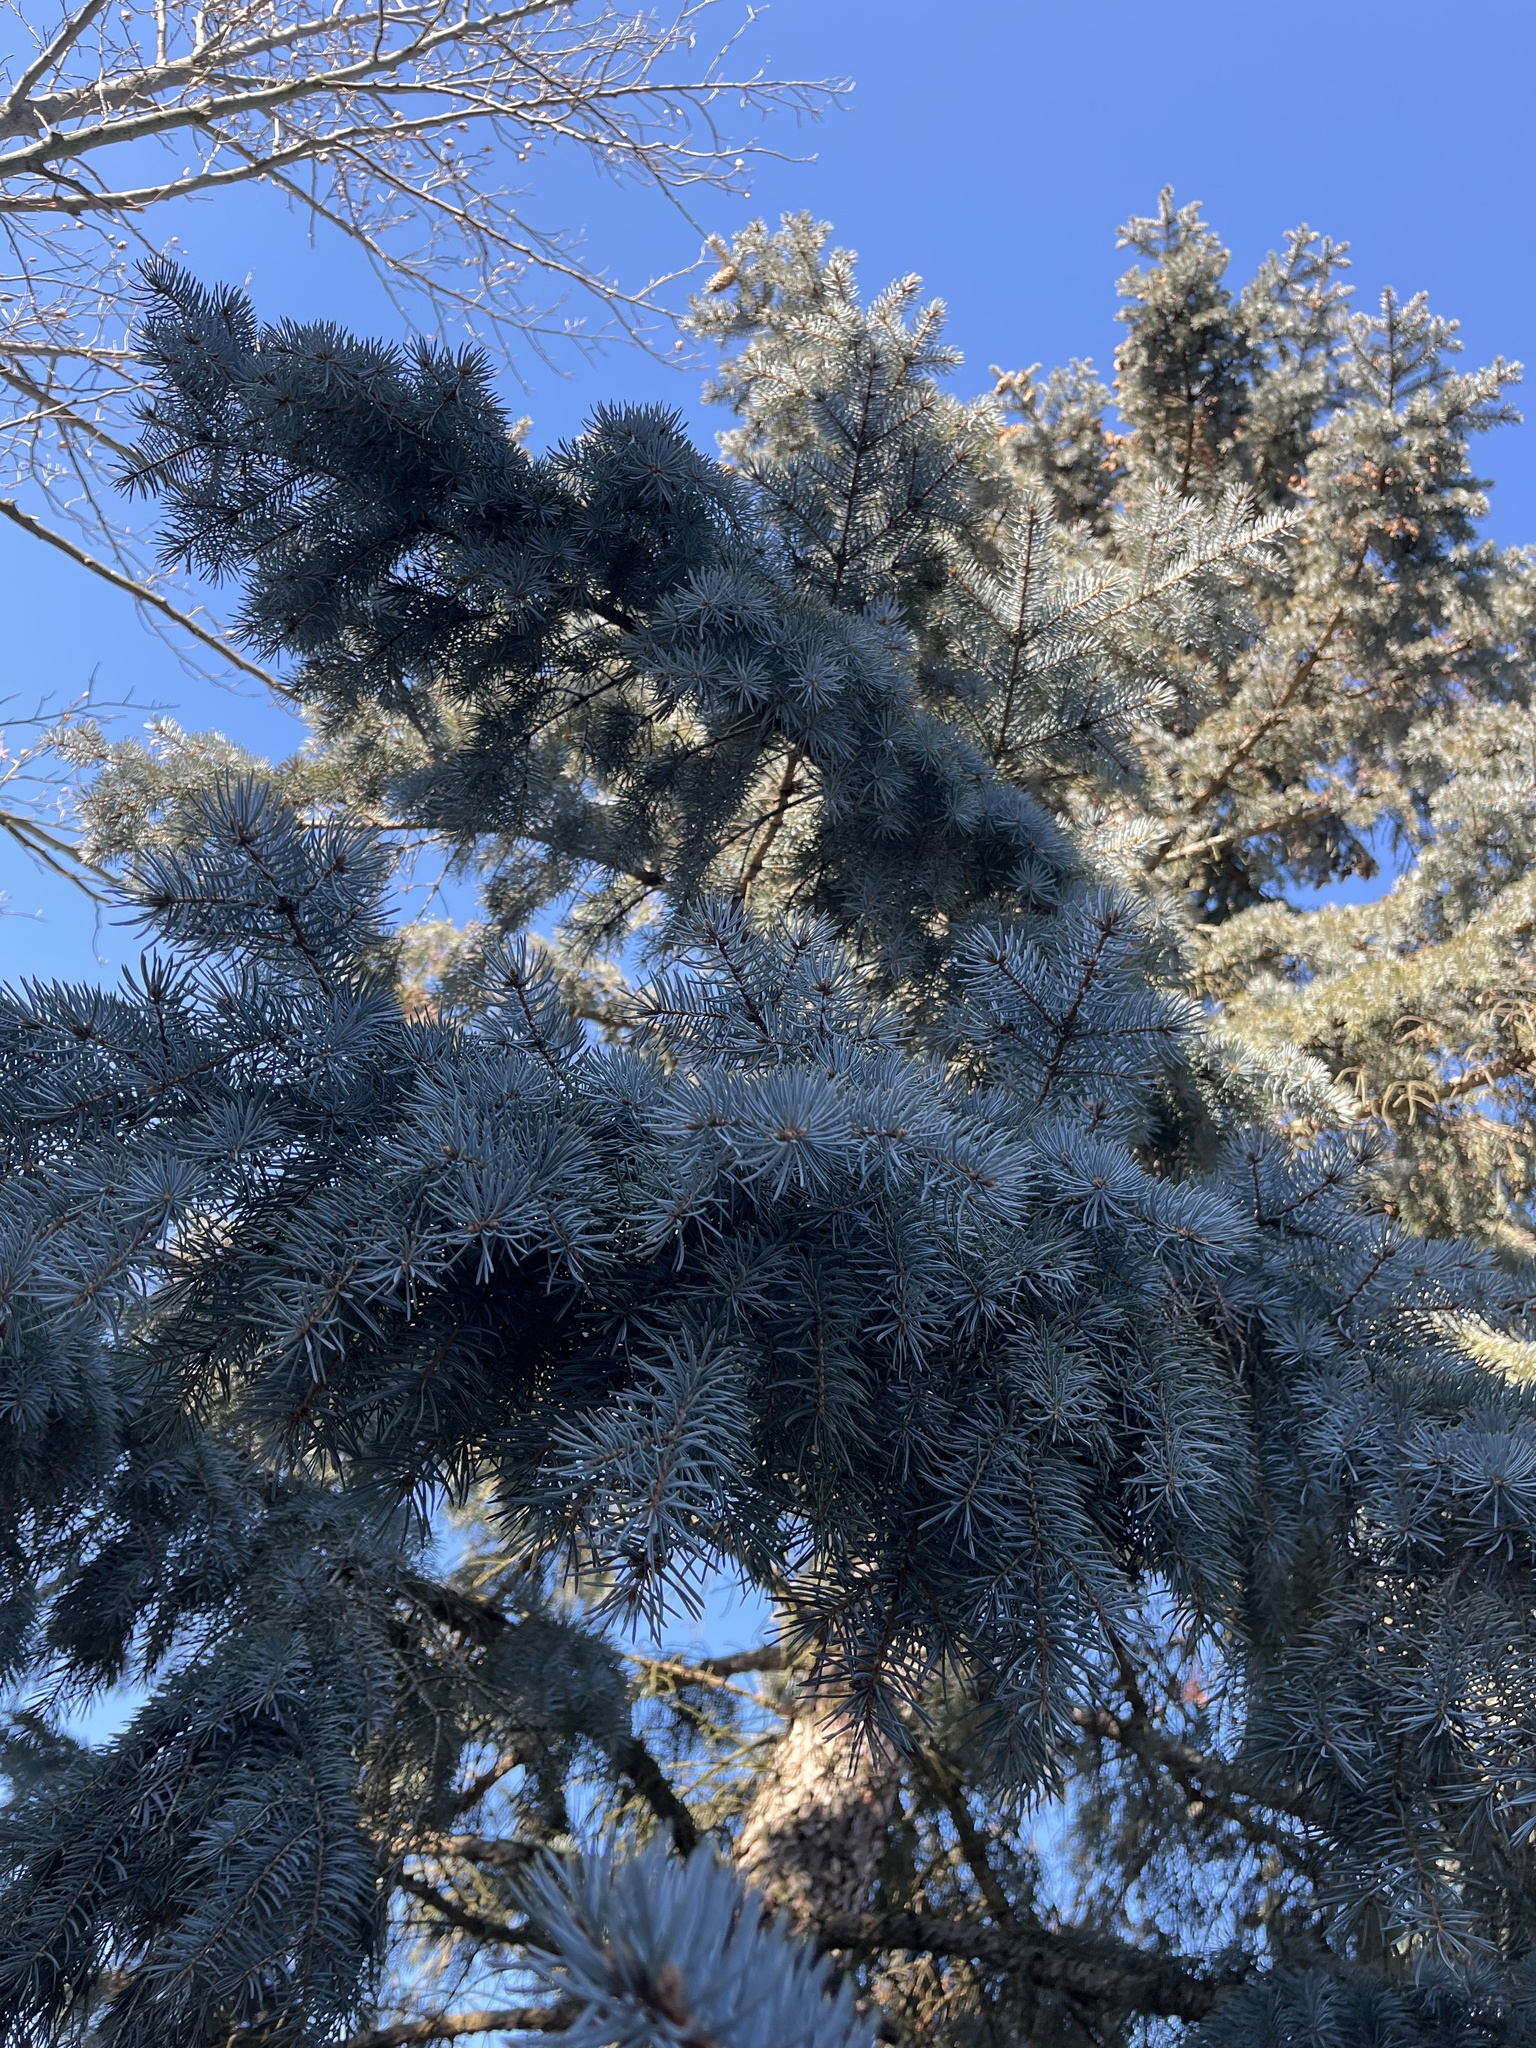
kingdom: Plantae
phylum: Tracheophyta
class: Pinopsida
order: Pinales
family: Pinaceae
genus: Picea
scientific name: Picea pungens
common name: Colorado spruce
